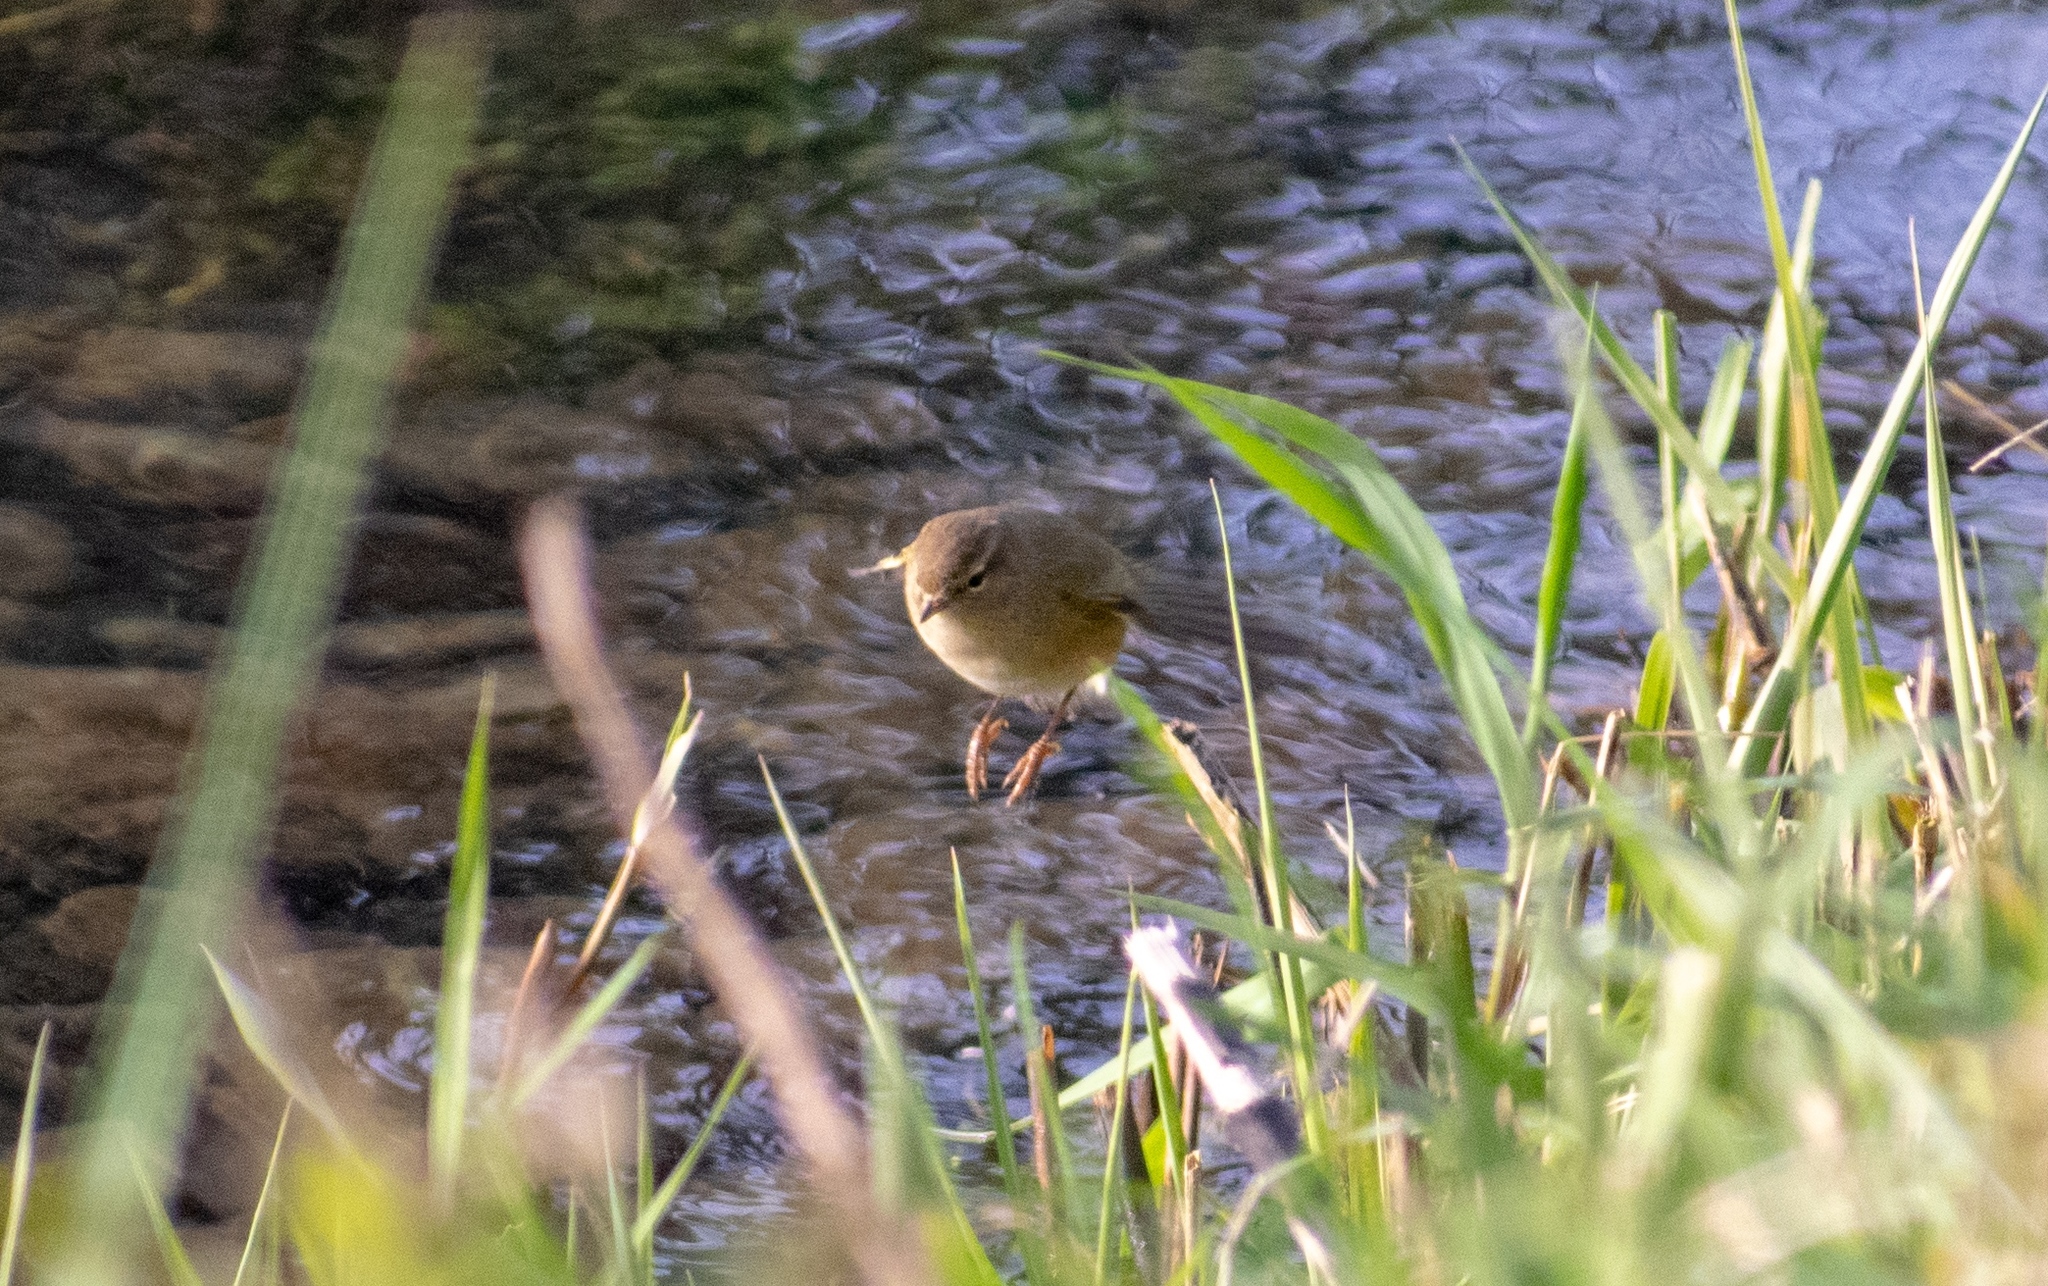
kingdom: Animalia
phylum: Chordata
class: Aves
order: Passeriformes
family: Phylloscopidae
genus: Phylloscopus
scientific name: Phylloscopus collybita
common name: Common chiffchaff
